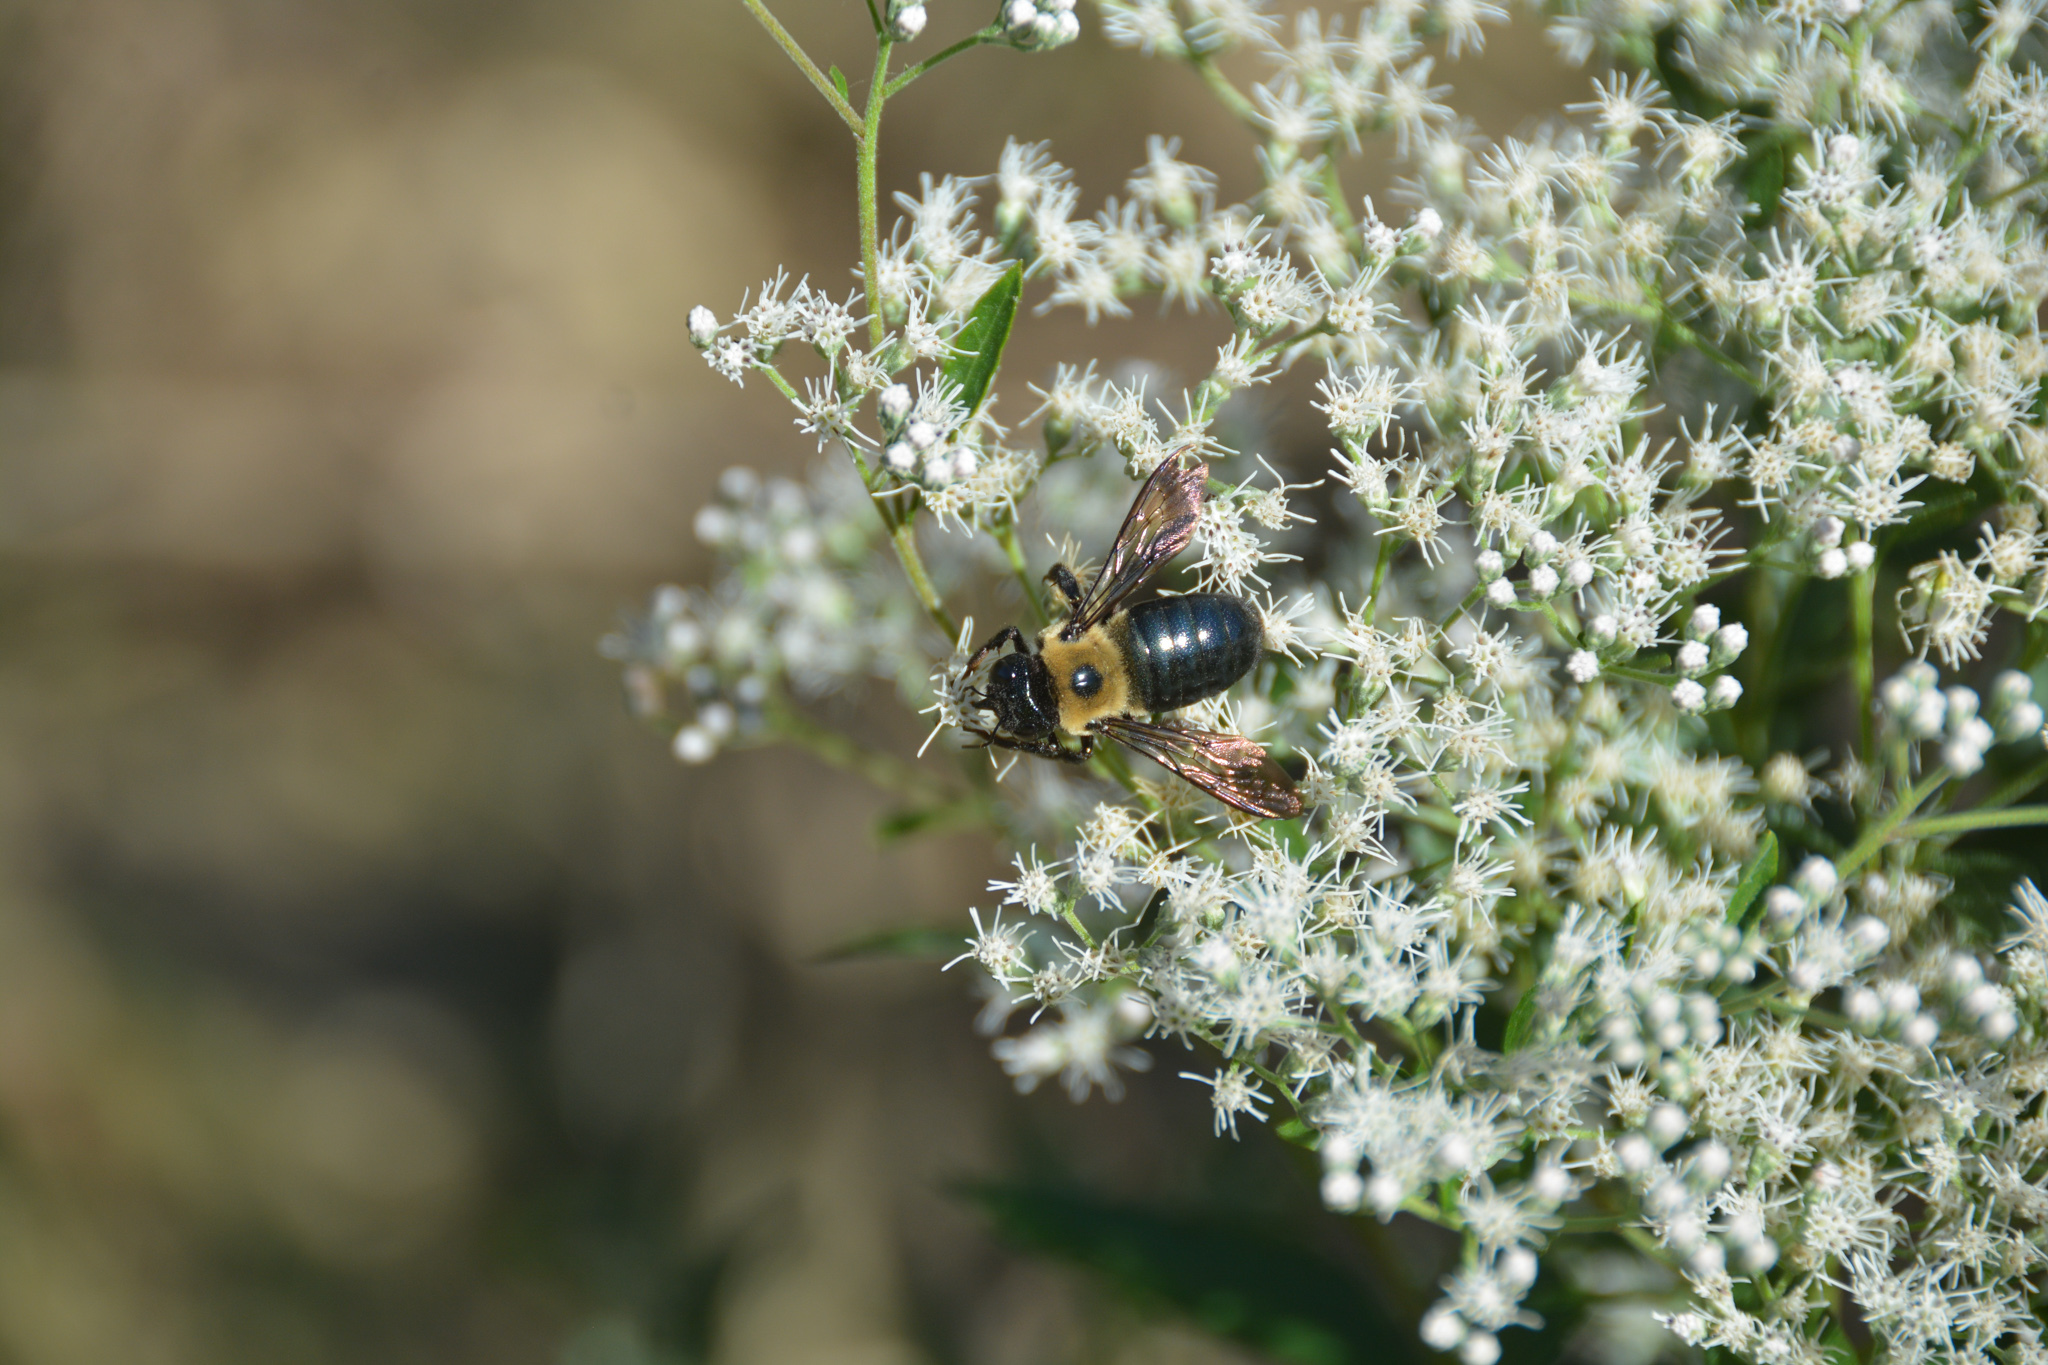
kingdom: Animalia
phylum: Arthropoda
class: Insecta
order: Hymenoptera
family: Apidae
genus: Xylocopa
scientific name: Xylocopa virginica
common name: Carpenter bee
